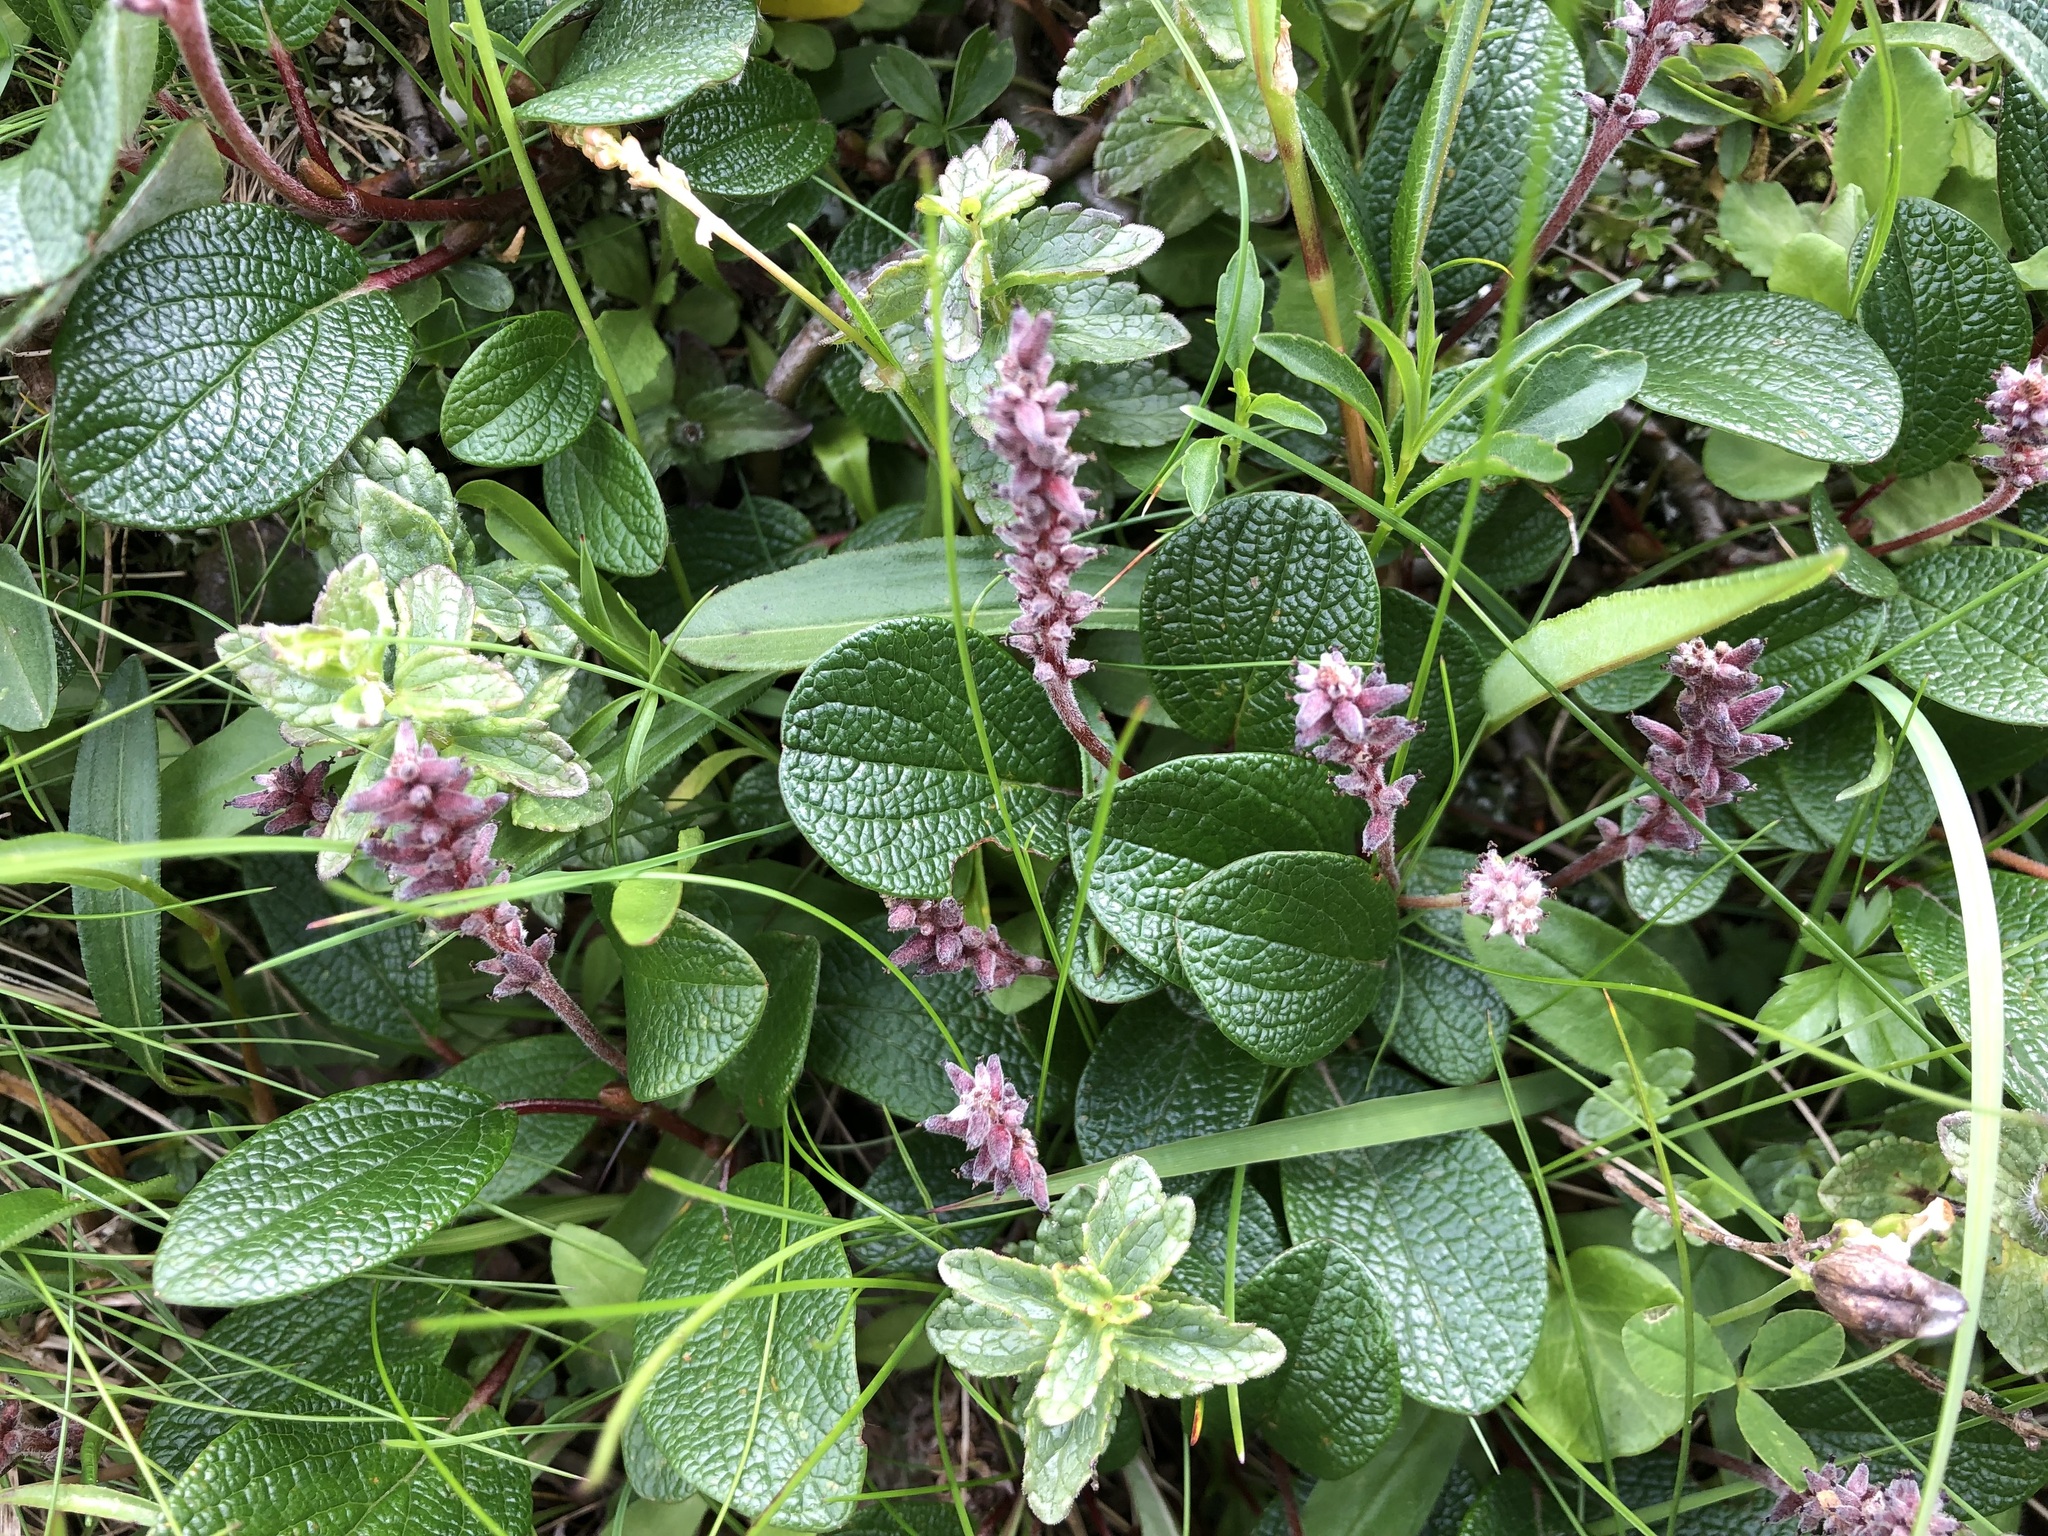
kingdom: Plantae
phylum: Tracheophyta
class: Magnoliopsida
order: Malpighiales
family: Salicaceae
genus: Salix
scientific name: Salix reticulata
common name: Net-leaved willow
